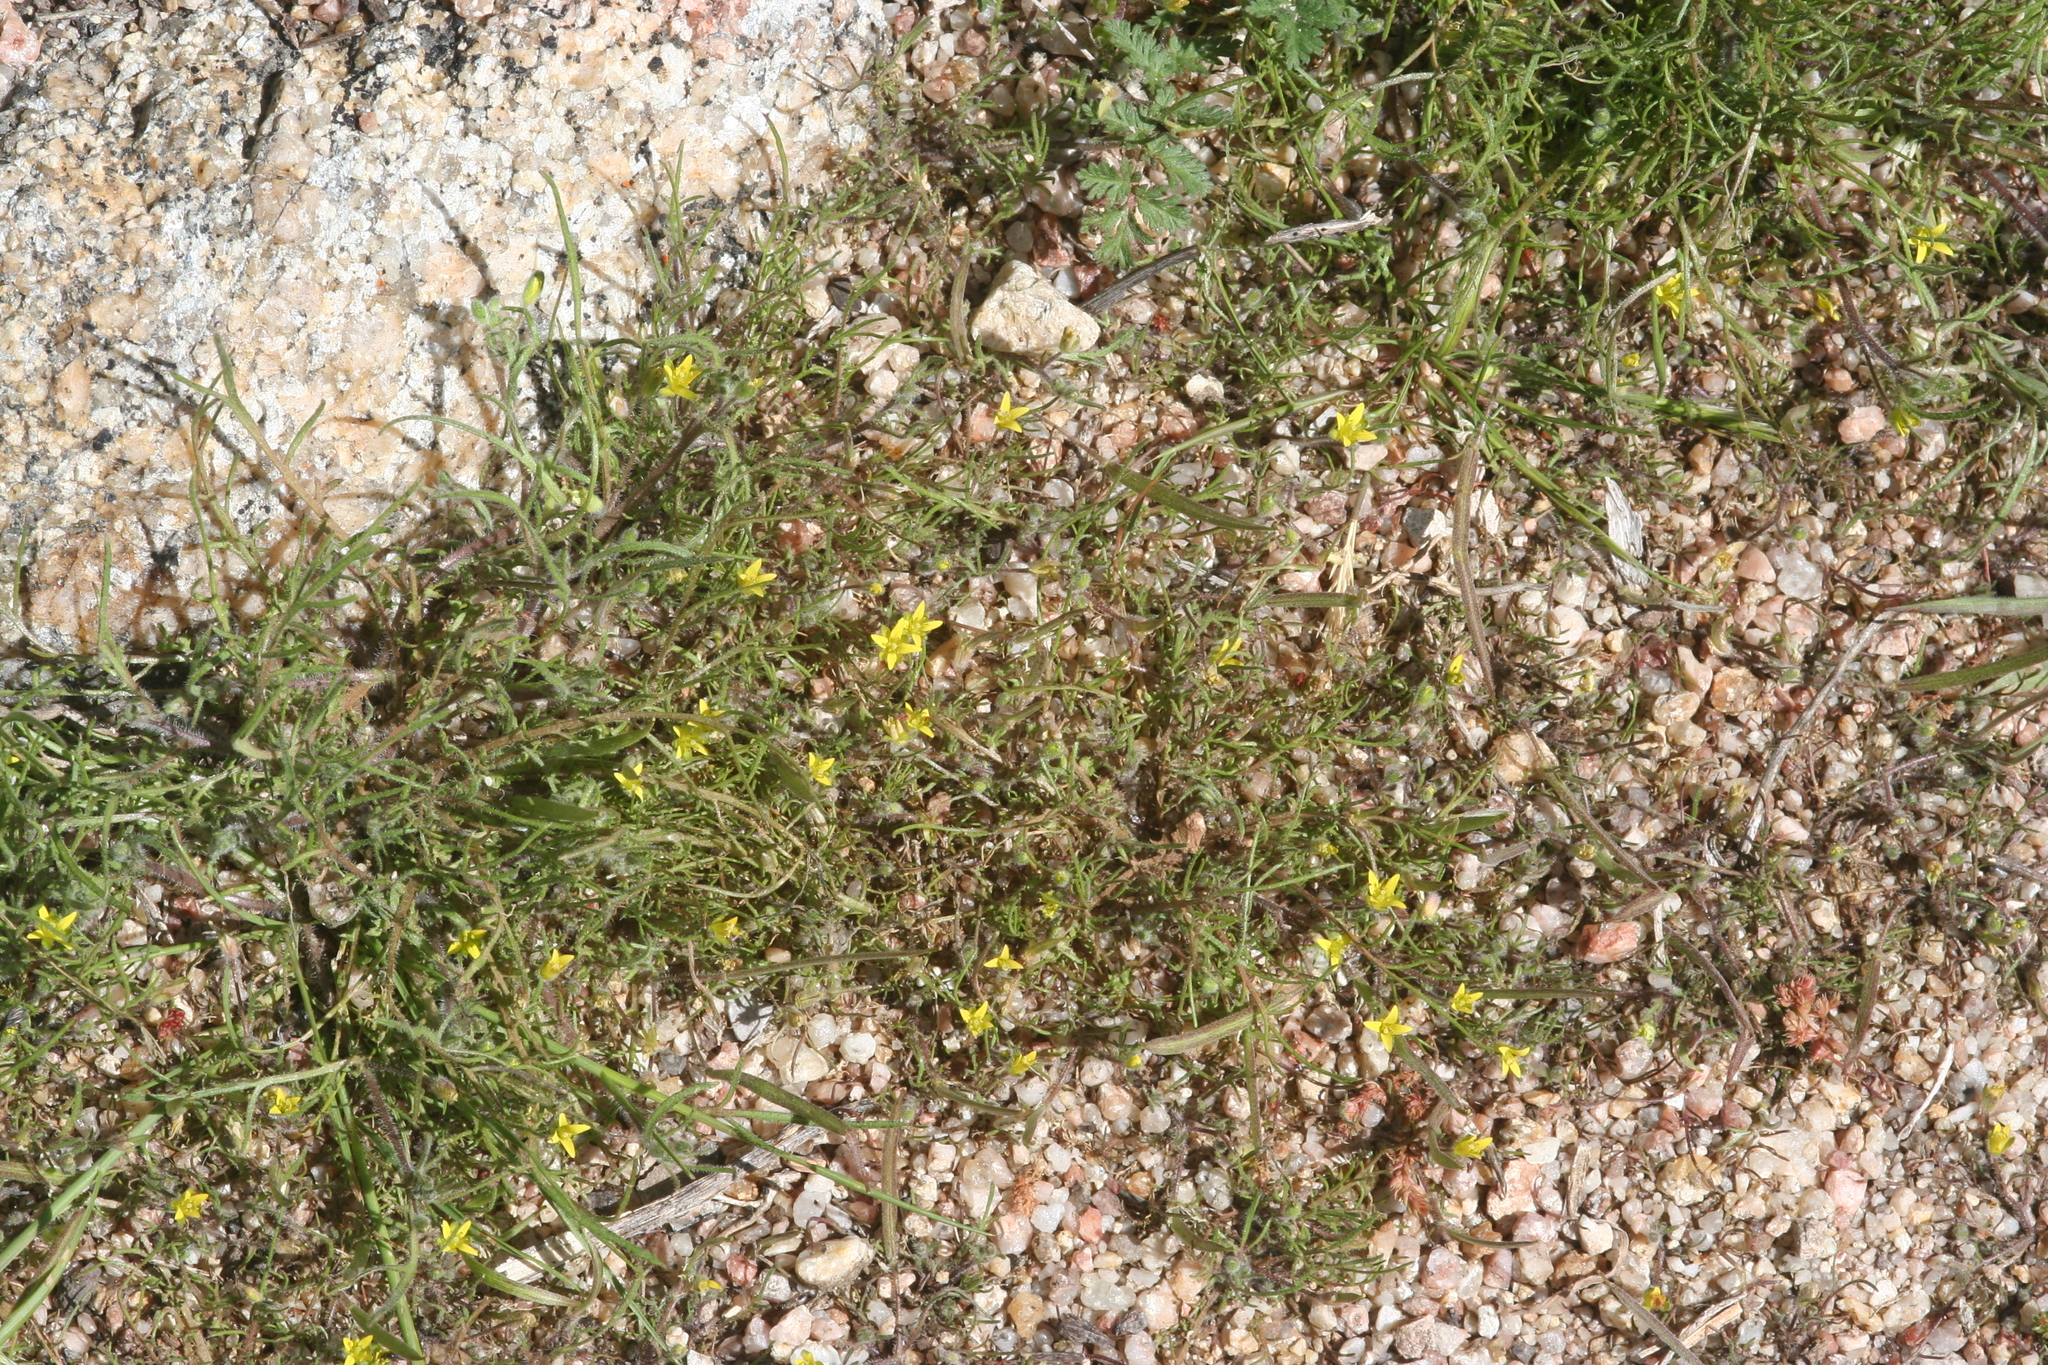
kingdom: Plantae
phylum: Tracheophyta
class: Magnoliopsida
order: Brassicales
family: Brassicaceae
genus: Tropidocarpum
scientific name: Tropidocarpum gracile
